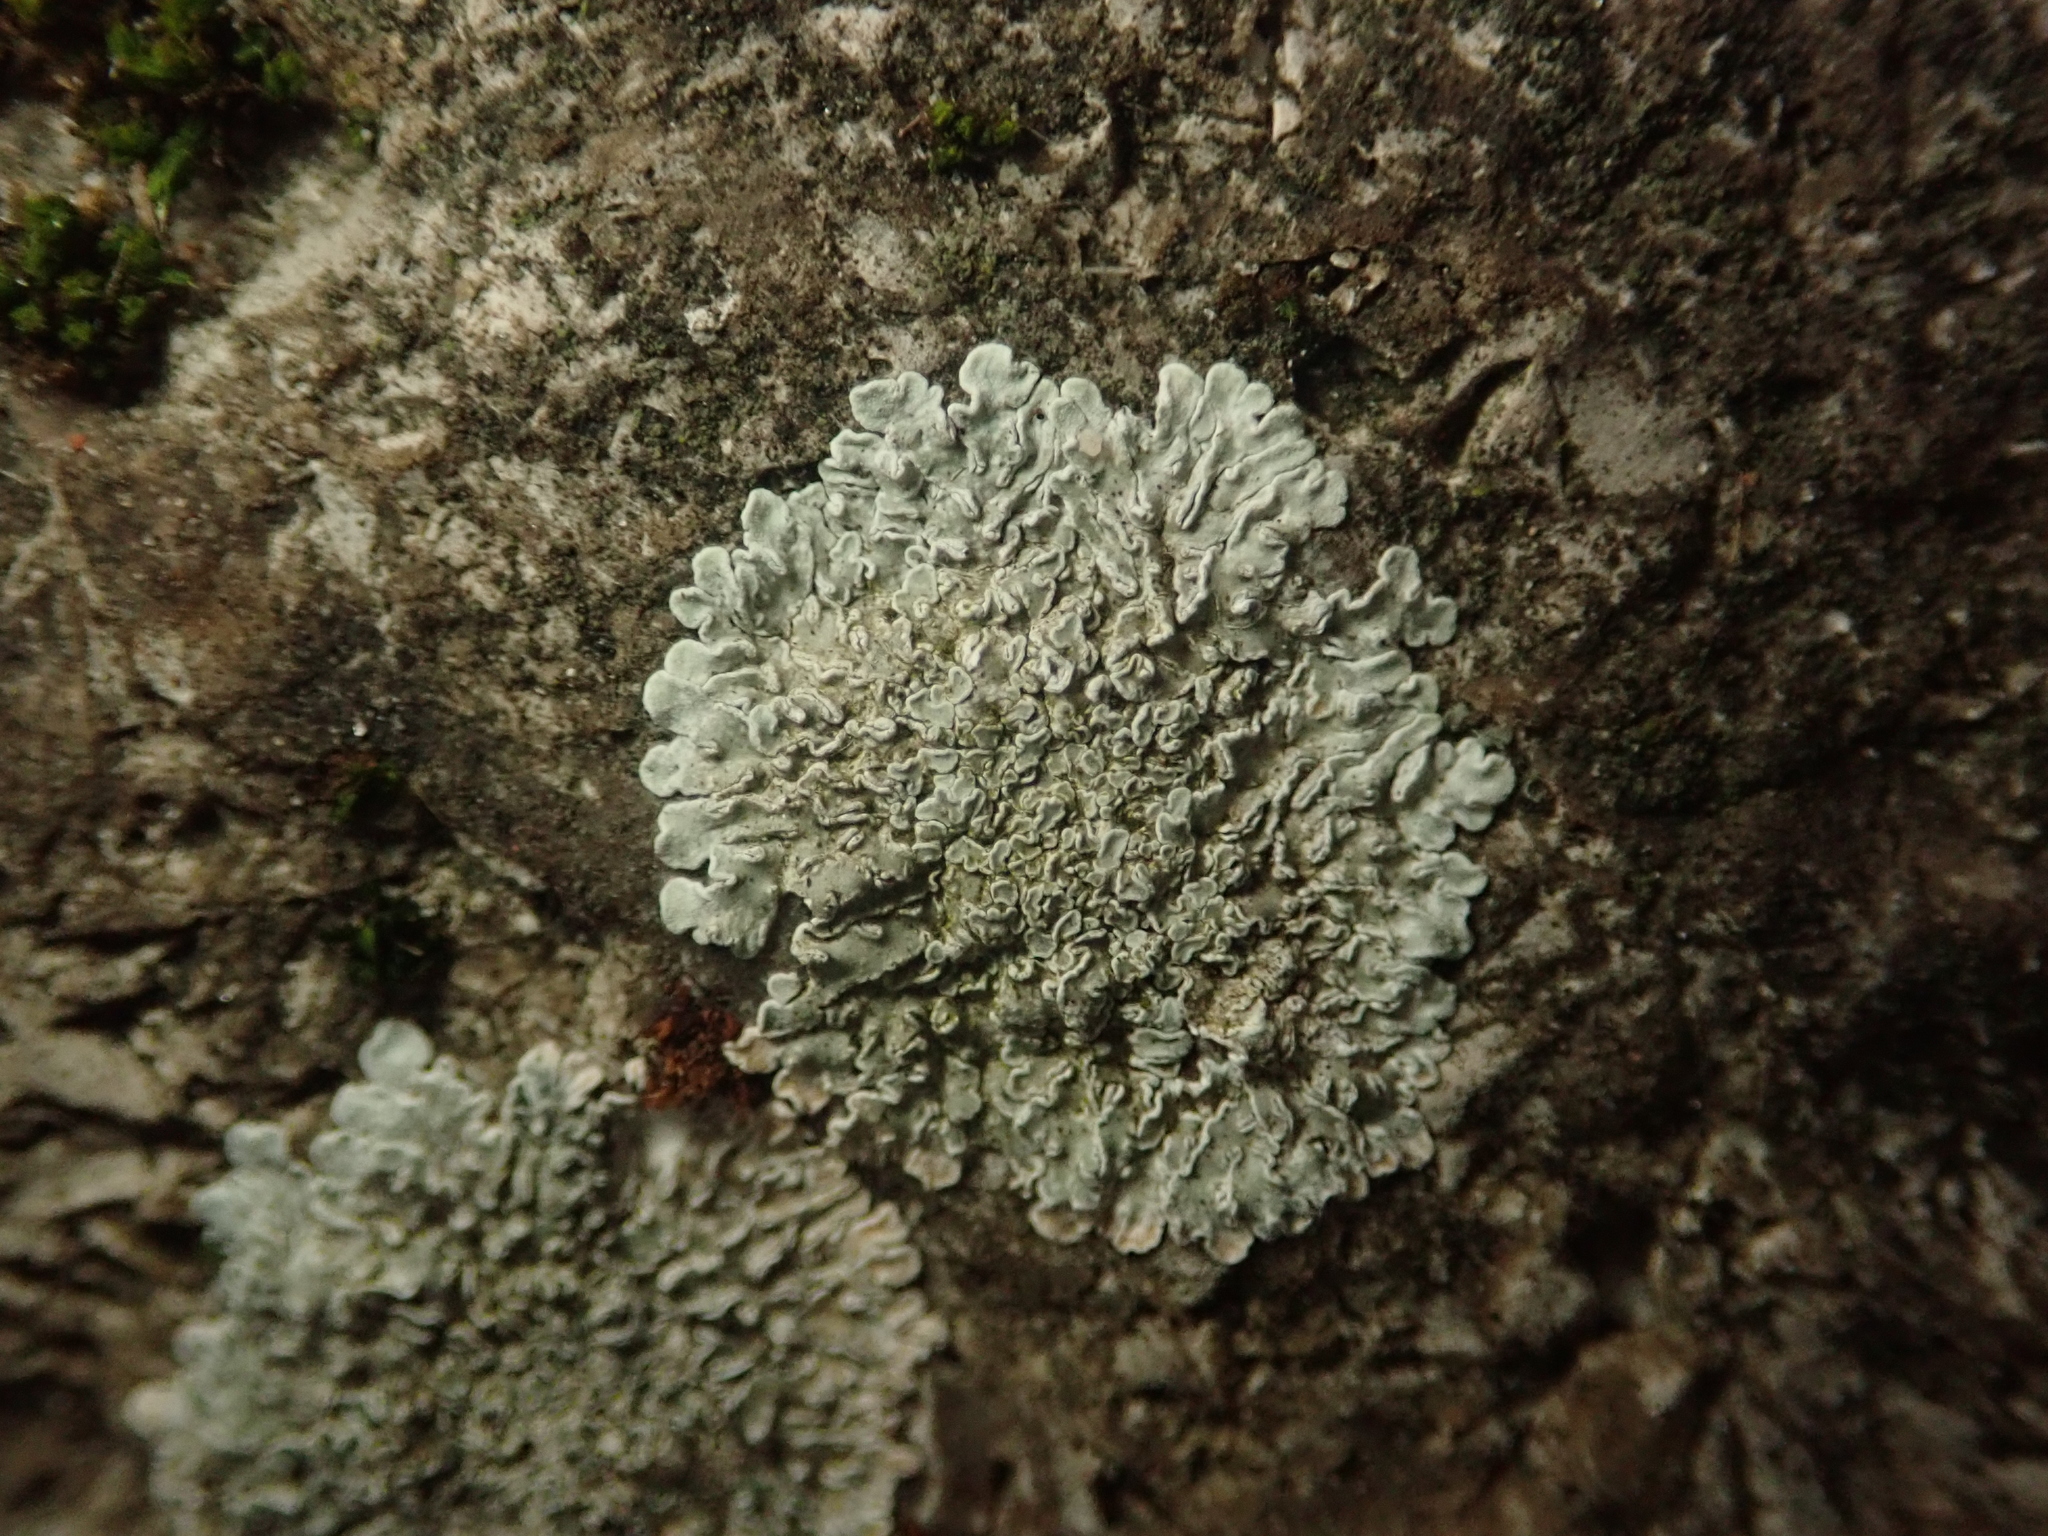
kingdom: Fungi
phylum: Ascomycota
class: Lecanoromycetes
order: Lecanorales
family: Lecanoraceae
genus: Protoparmeliopsis
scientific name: Protoparmeliopsis muralis
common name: Stonewall rim lichen
